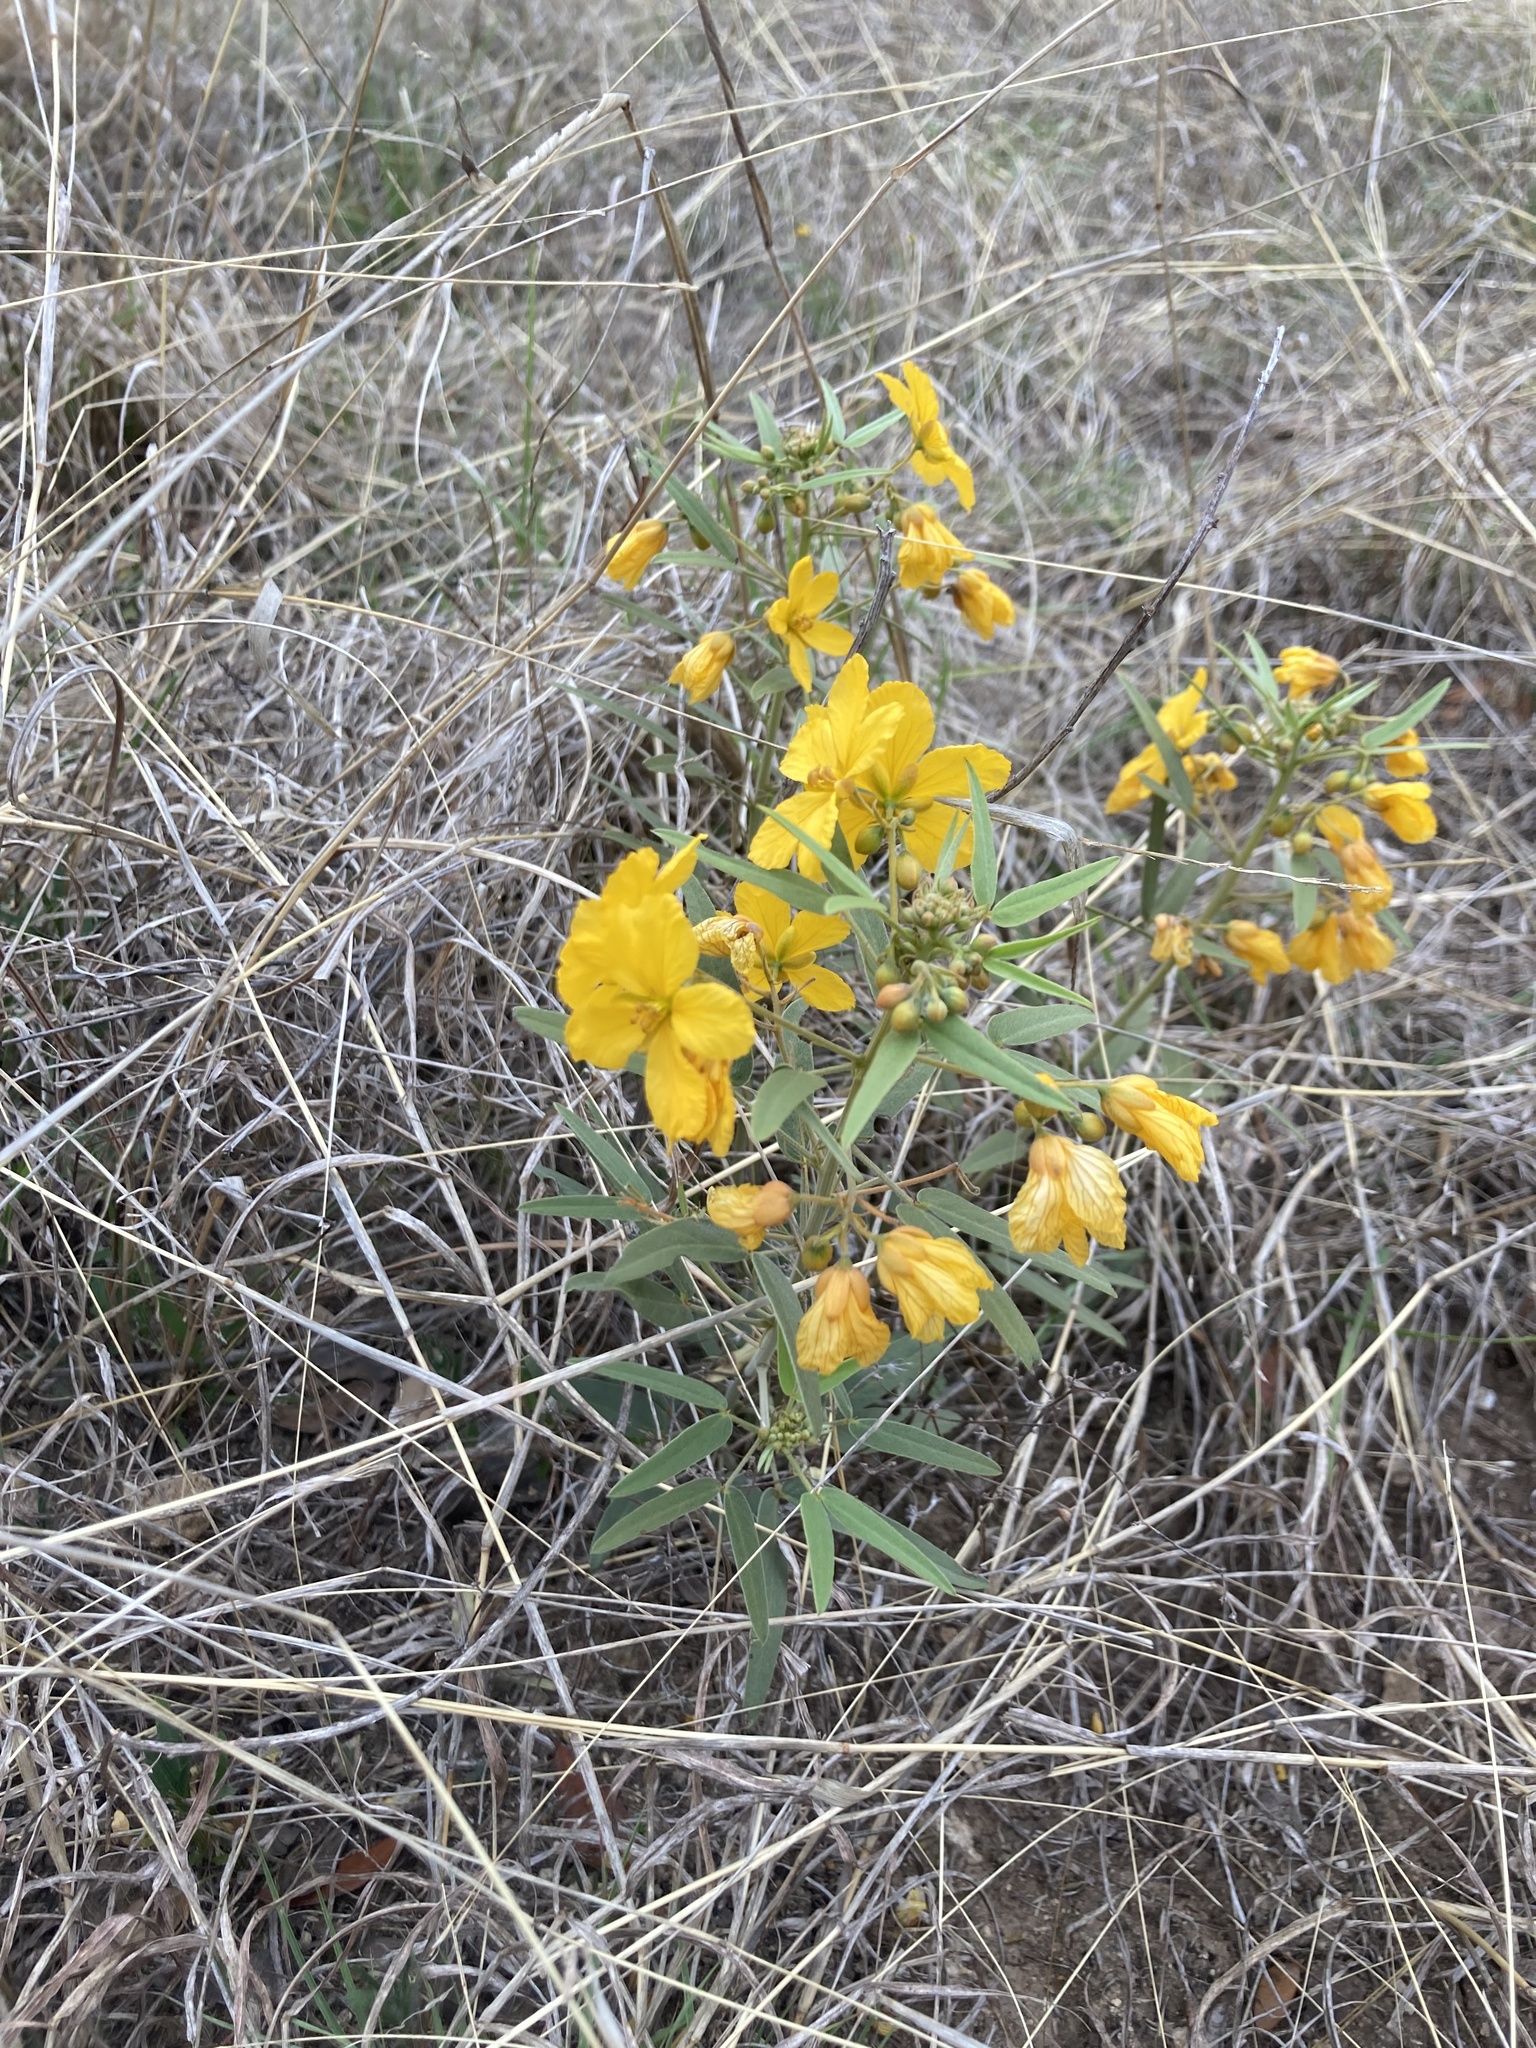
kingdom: Plantae
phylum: Tracheophyta
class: Magnoliopsida
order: Fabales
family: Fabaceae
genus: Senna
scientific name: Senna roemeriana
